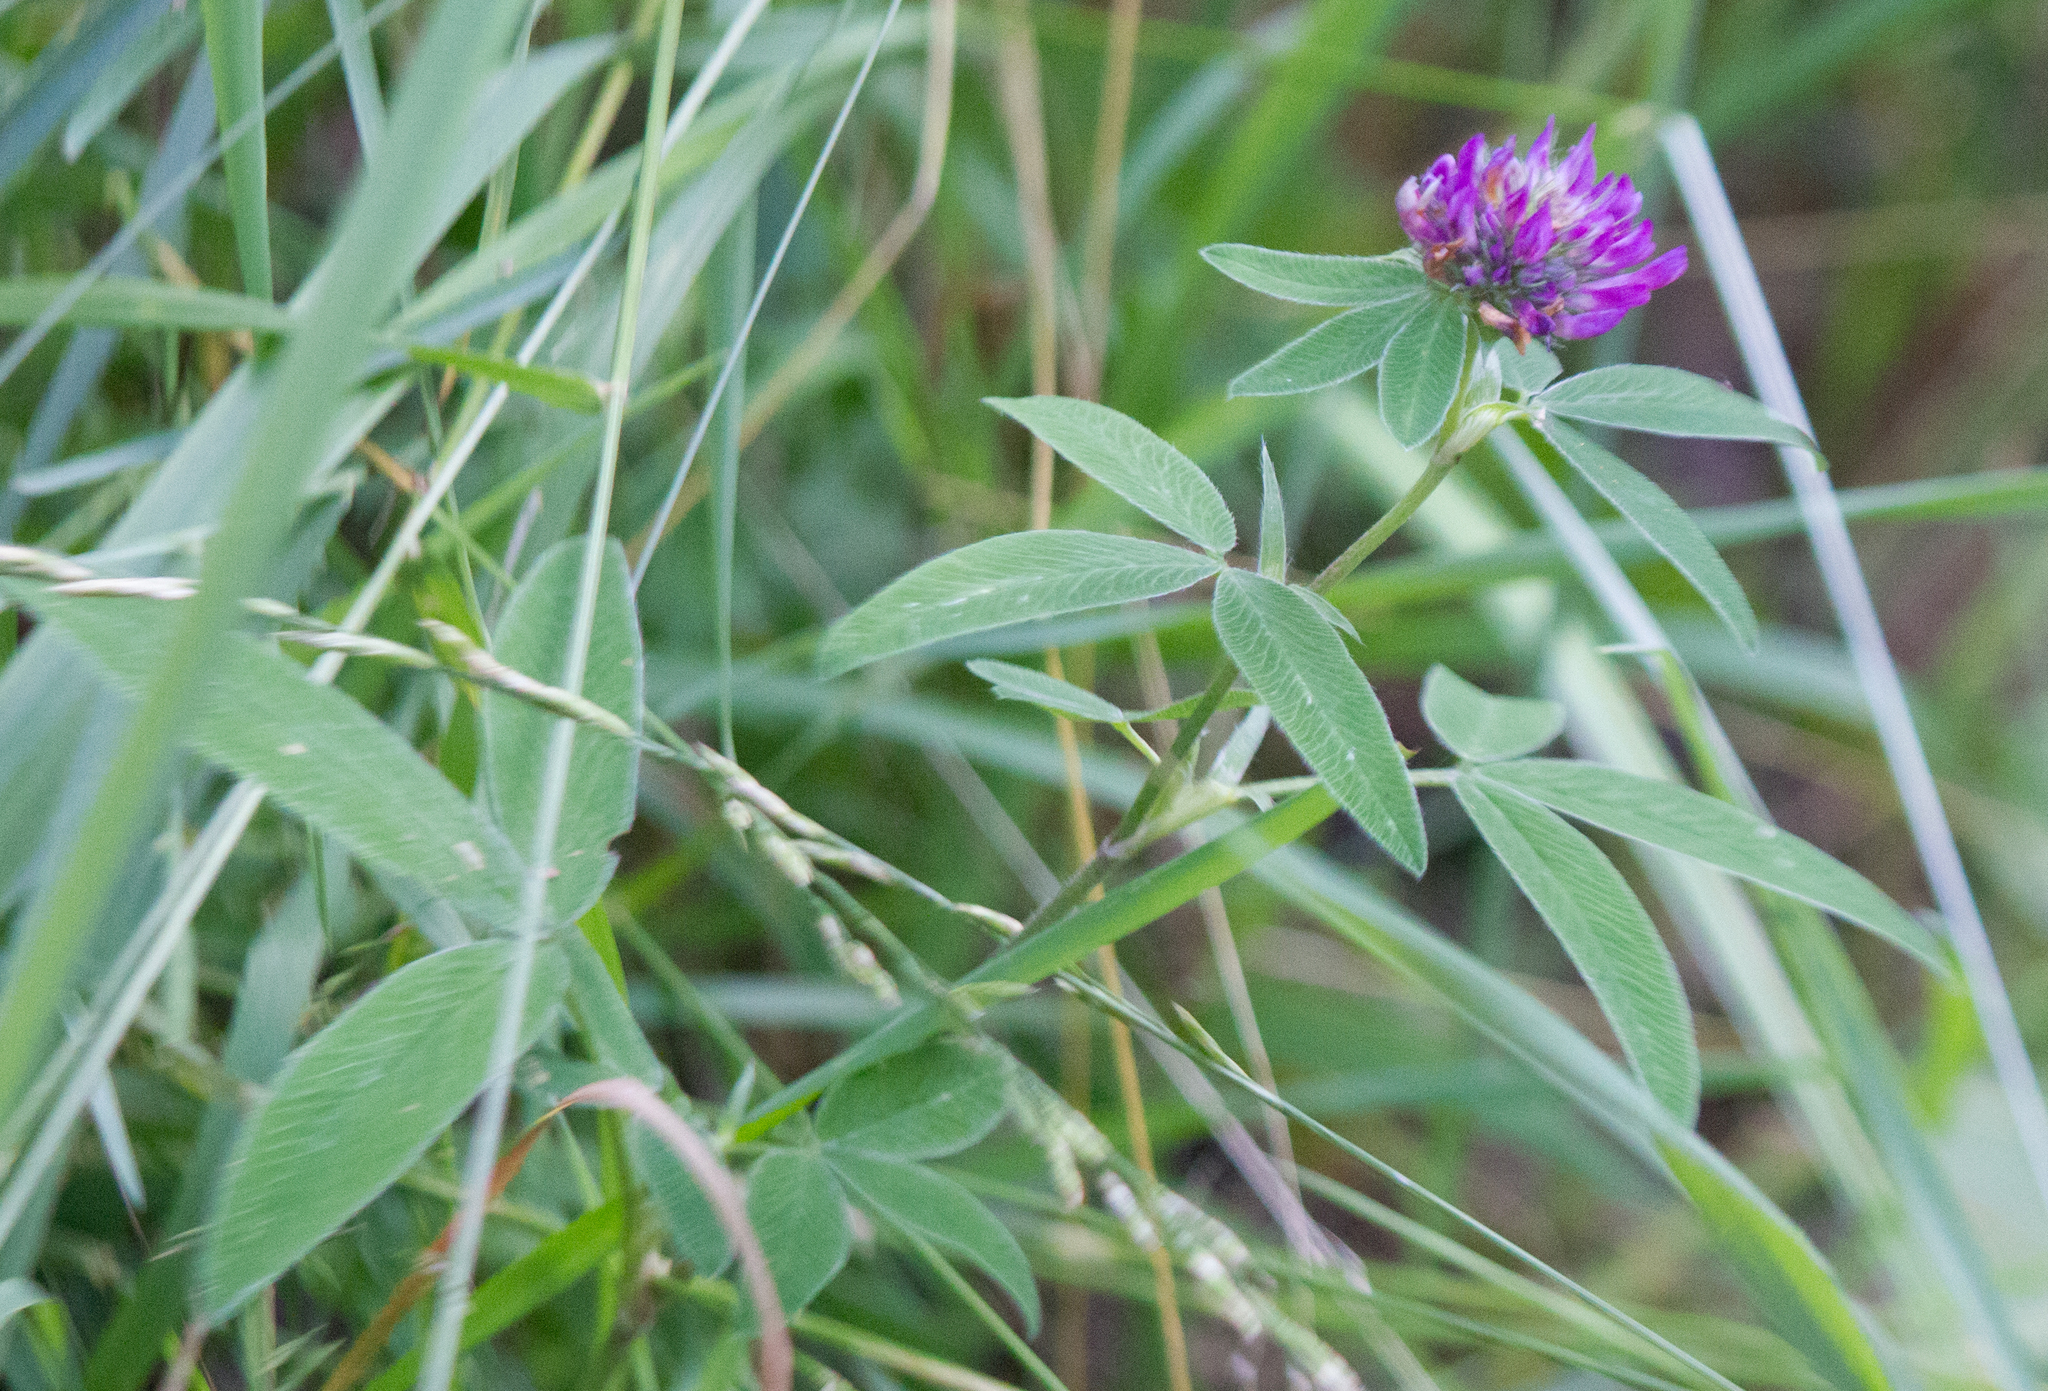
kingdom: Plantae
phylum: Tracheophyta
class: Magnoliopsida
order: Fabales
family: Fabaceae
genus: Trifolium
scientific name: Trifolium medium
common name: Zigzag clover
